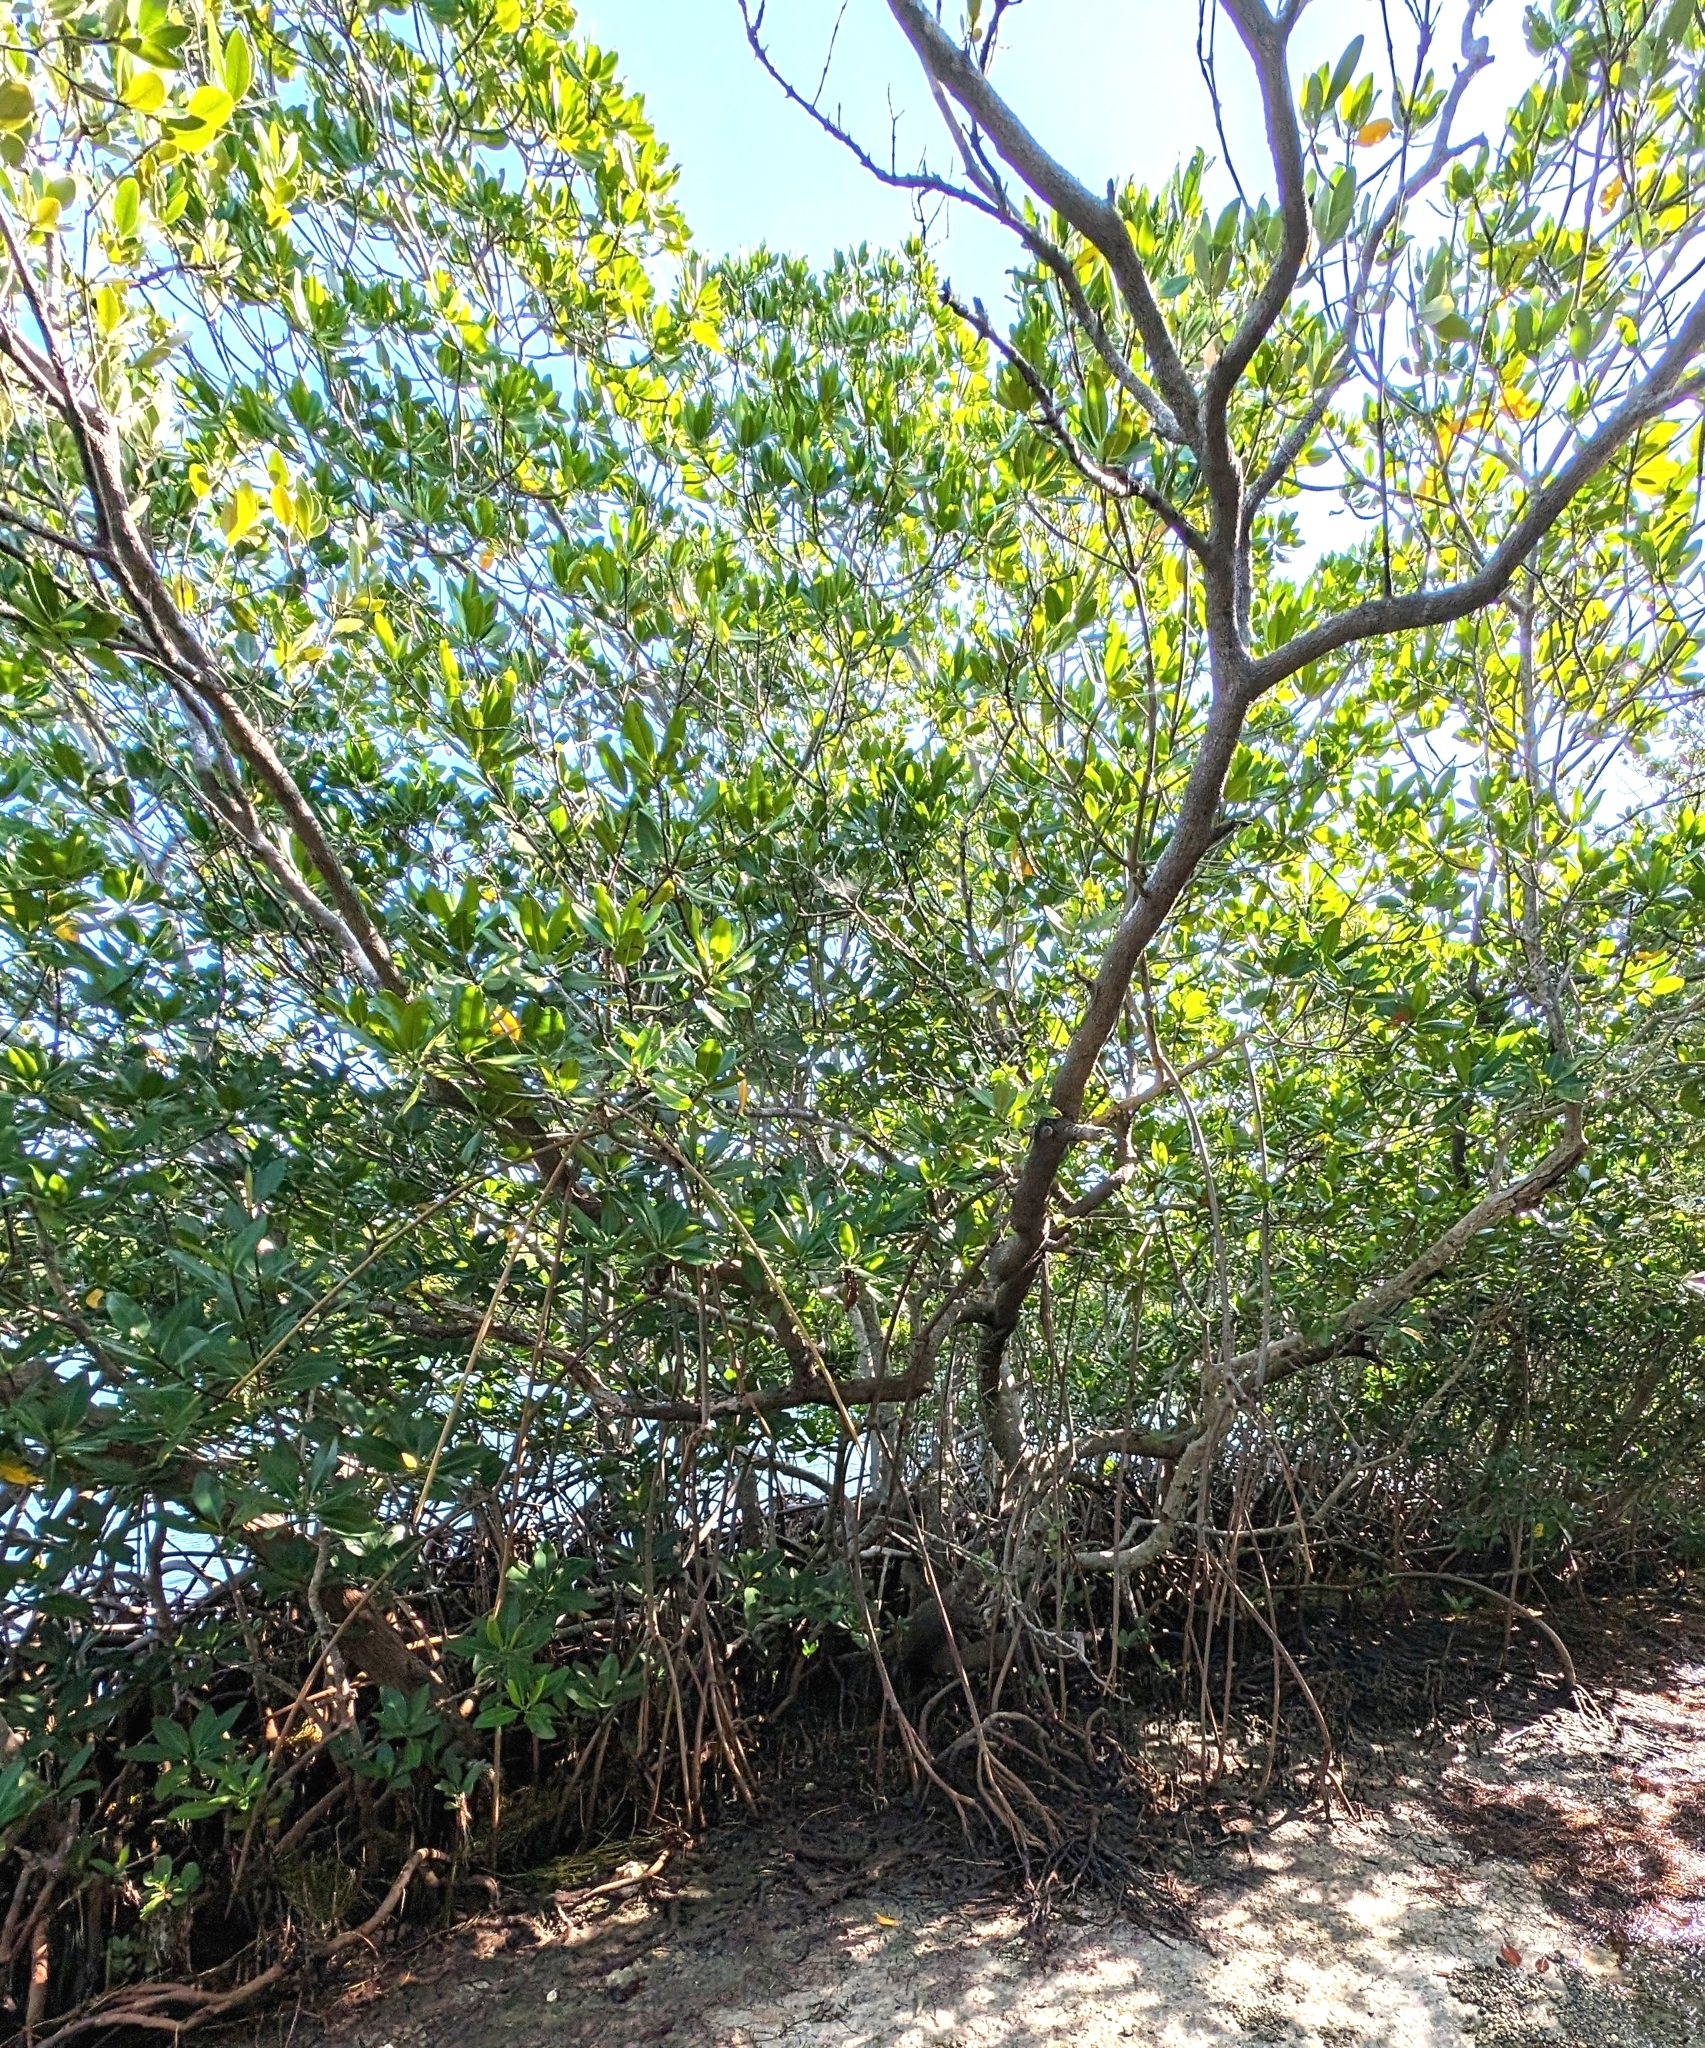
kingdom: Plantae
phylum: Tracheophyta
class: Magnoliopsida
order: Malpighiales
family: Rhizophoraceae
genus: Rhizophora
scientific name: Rhizophora mangle
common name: Red mangrove
